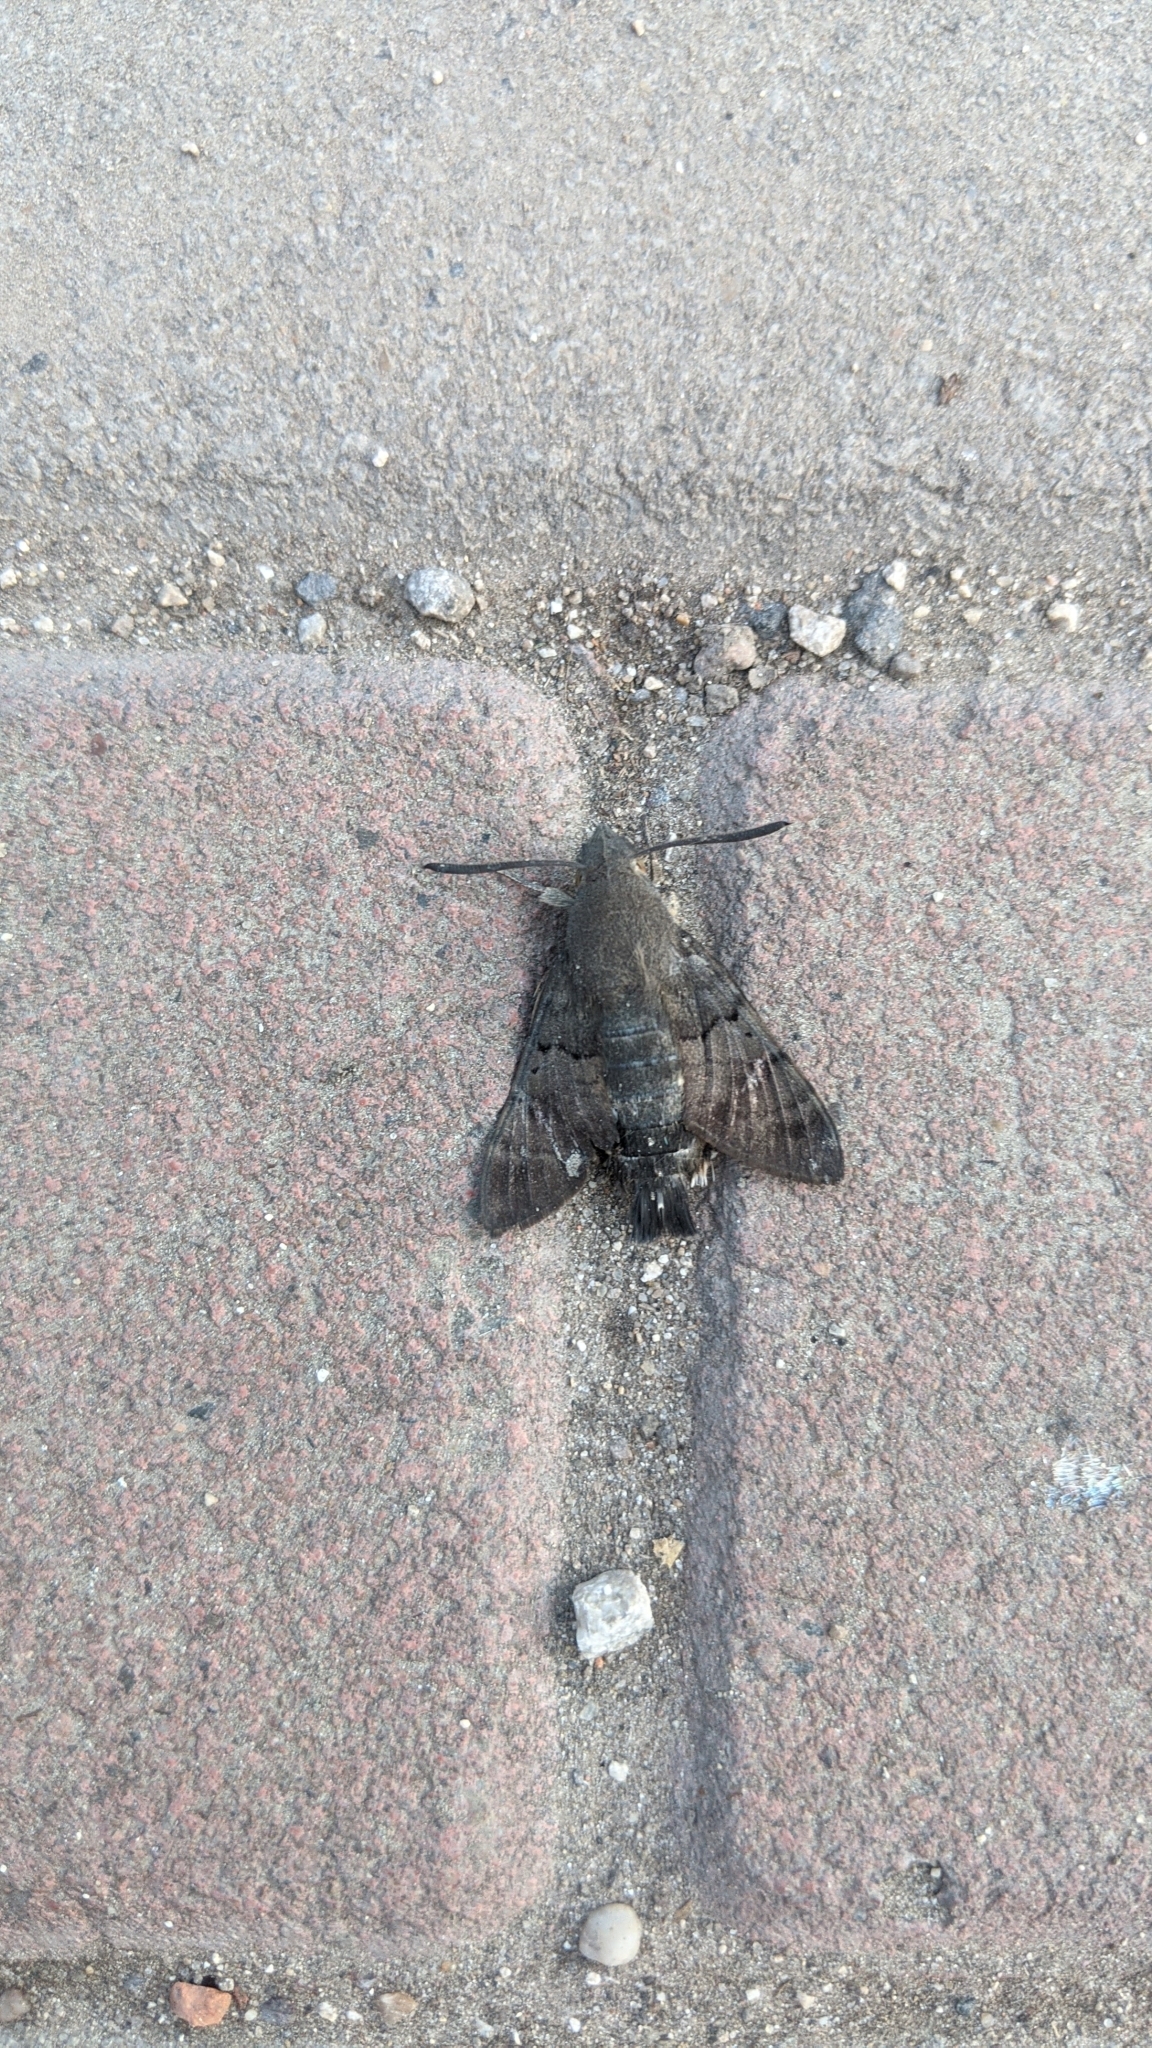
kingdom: Animalia
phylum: Arthropoda
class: Insecta
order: Lepidoptera
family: Sphingidae
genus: Macroglossum
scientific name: Macroglossum stellatarum
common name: Humming-bird hawk-moth
